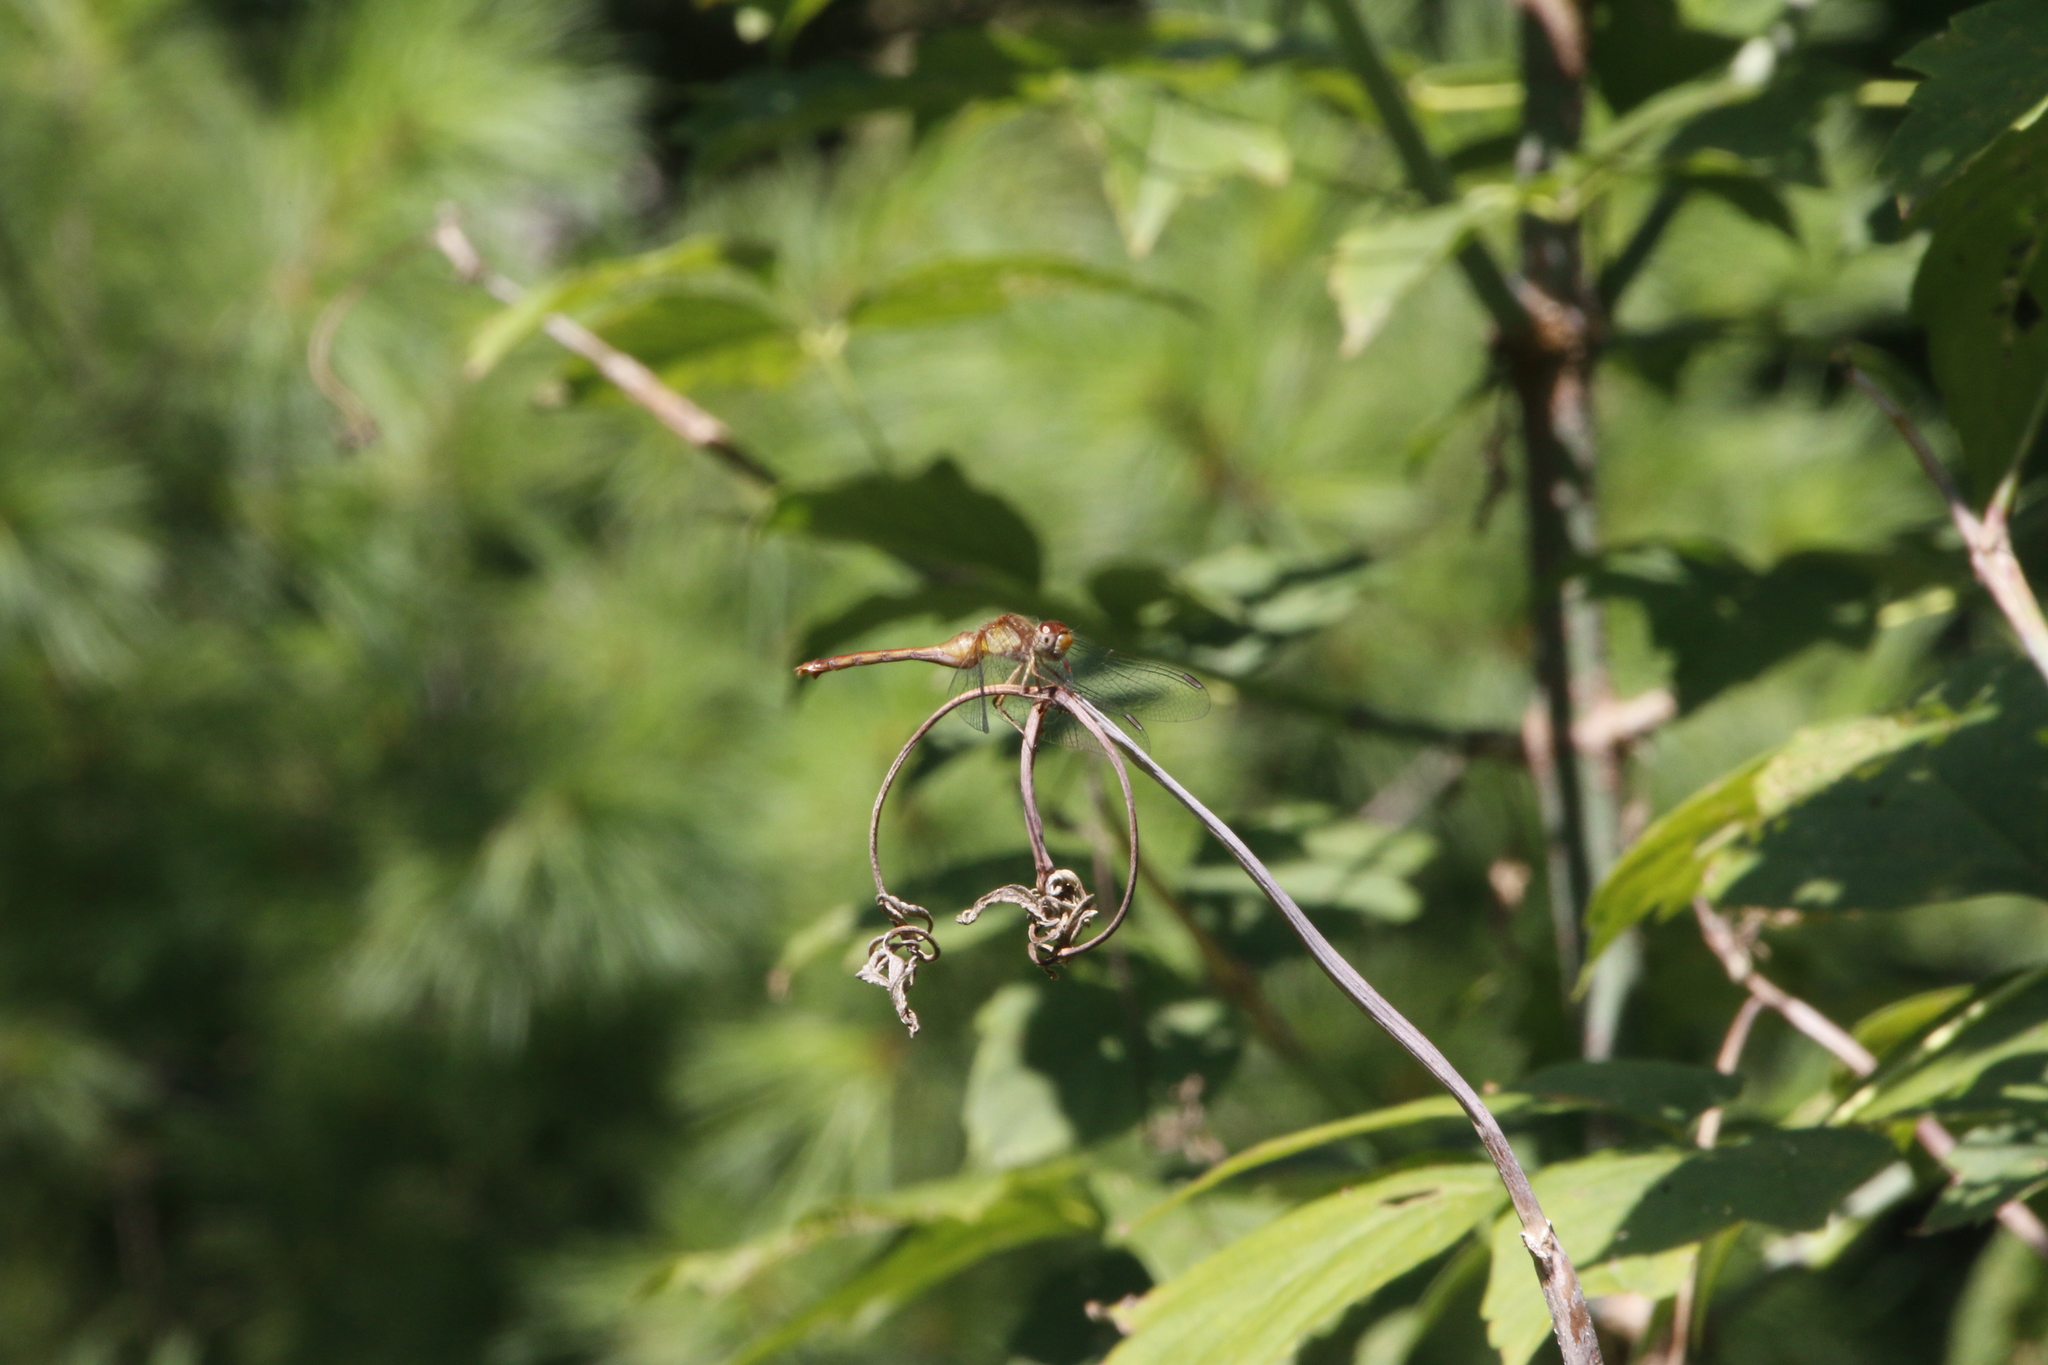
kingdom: Animalia
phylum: Arthropoda
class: Insecta
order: Odonata
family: Libellulidae
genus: Sympetrum
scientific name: Sympetrum vicinum
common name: Autumn meadowhawk
